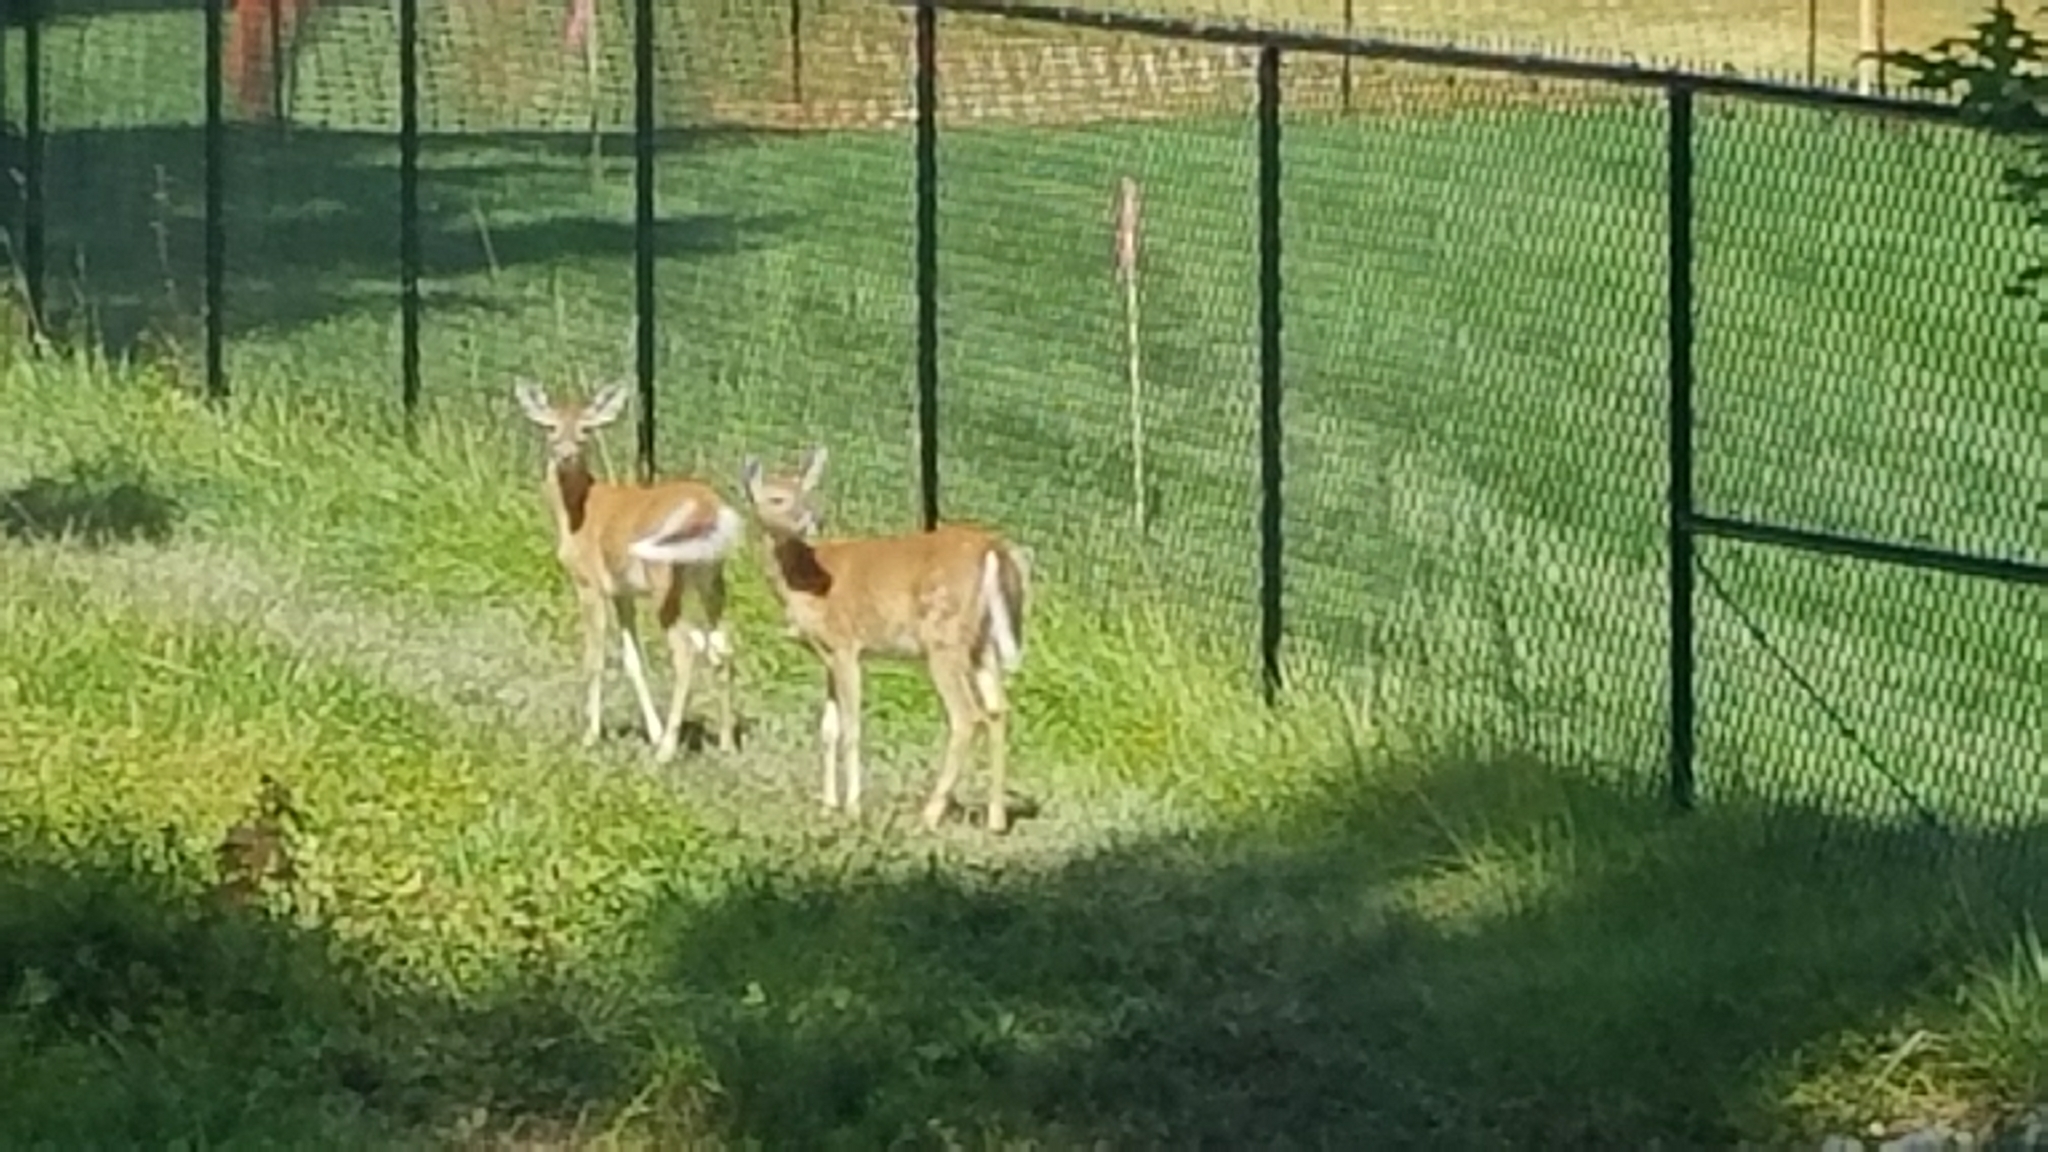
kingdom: Animalia
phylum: Chordata
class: Mammalia
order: Artiodactyla
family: Cervidae
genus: Odocoileus
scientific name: Odocoileus virginianus
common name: White-tailed deer
